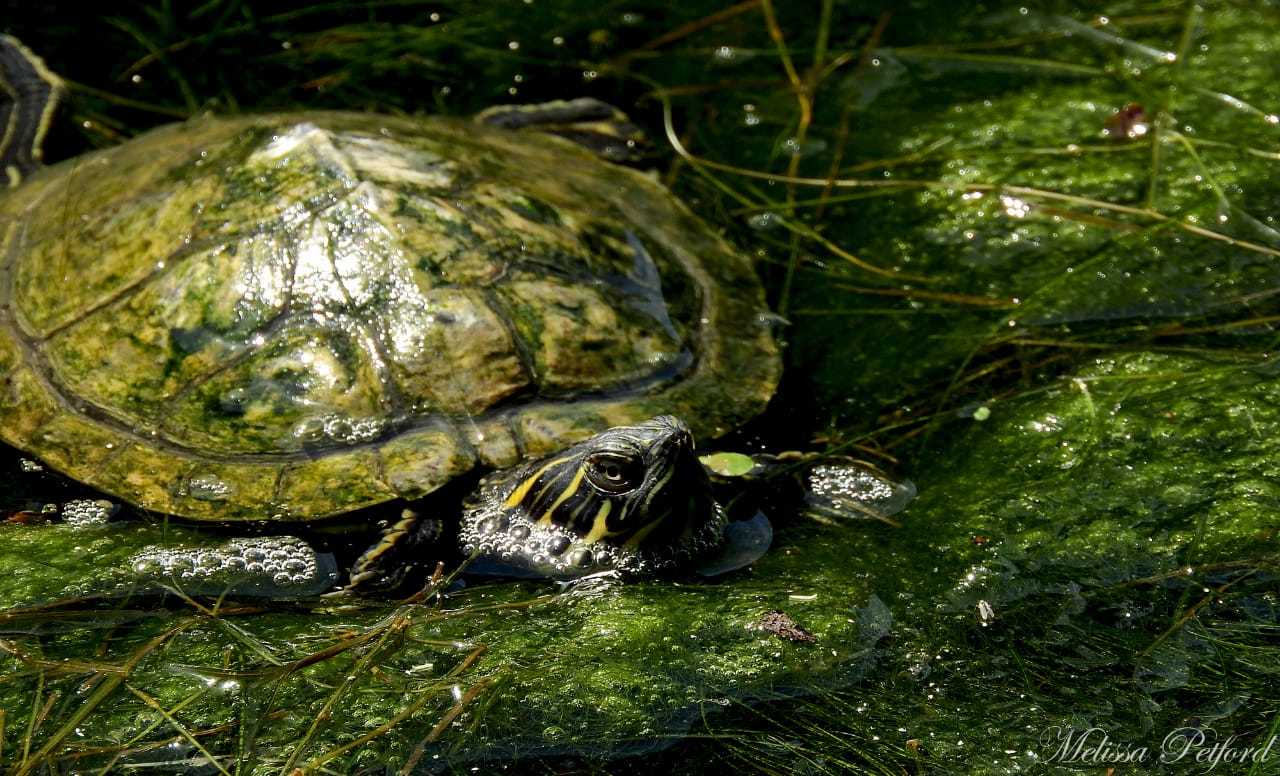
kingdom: Animalia
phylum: Chordata
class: Testudines
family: Emydidae
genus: Trachemys
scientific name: Trachemys scripta
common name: Slider
